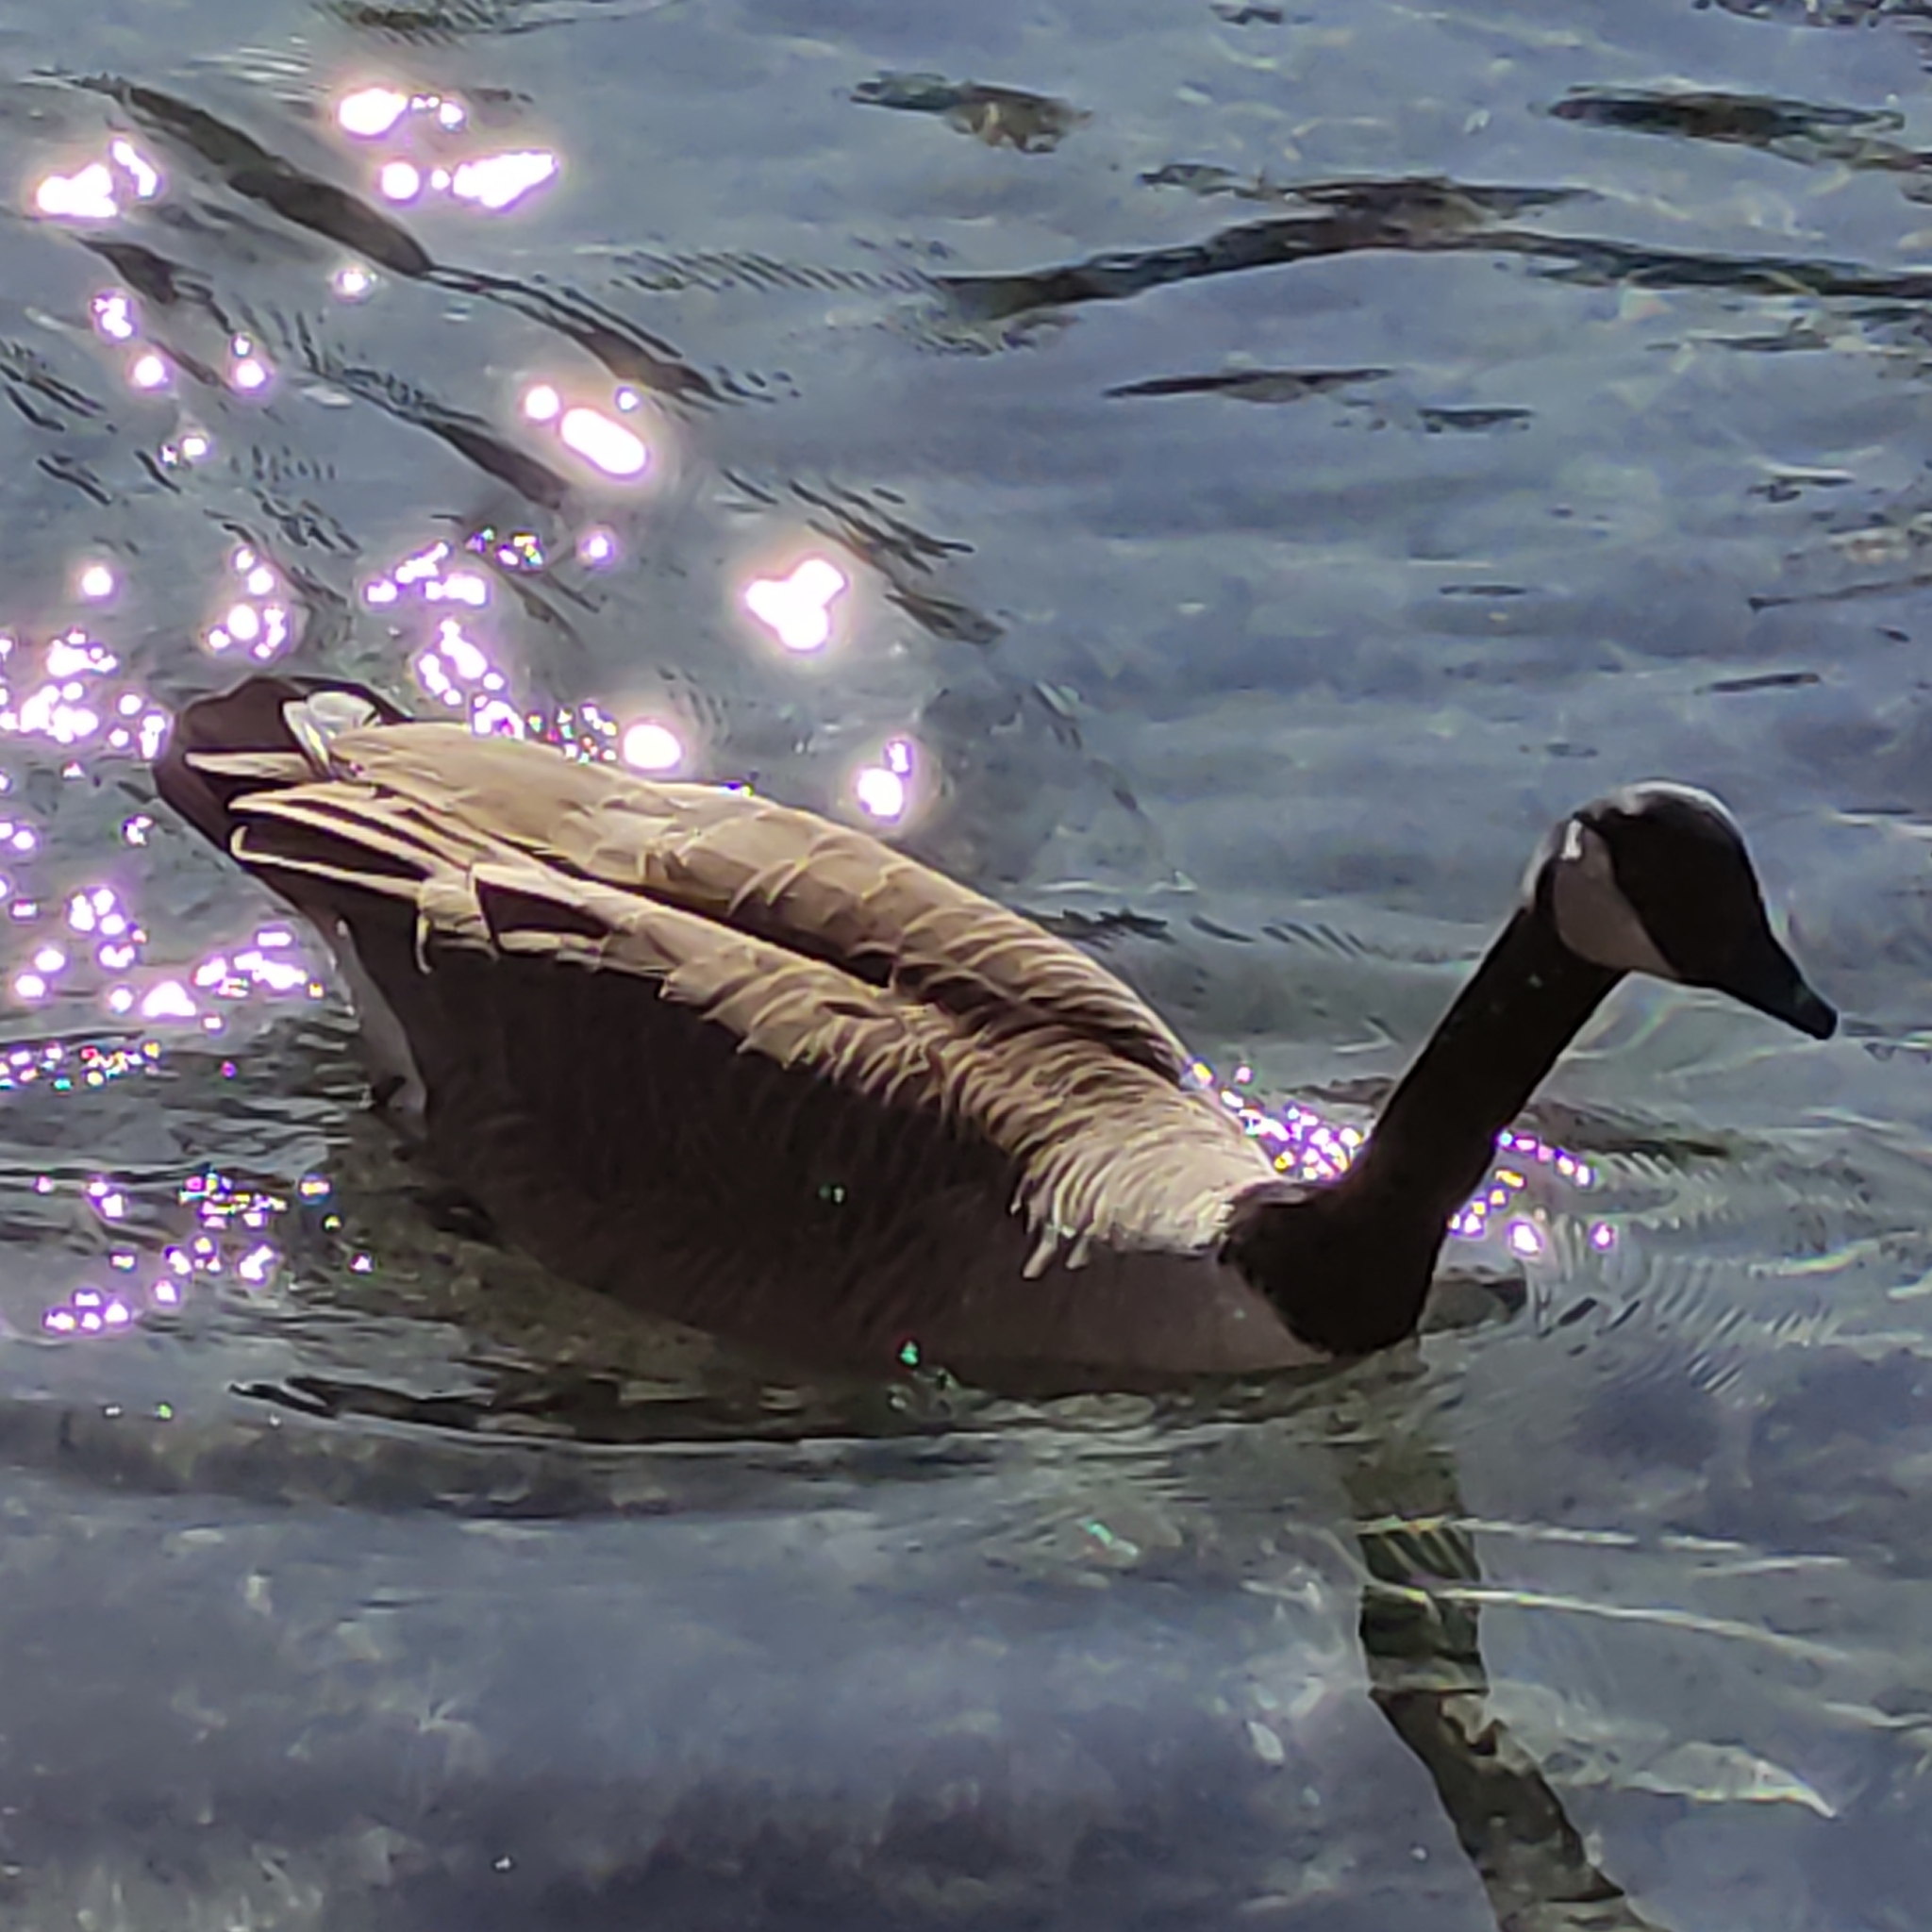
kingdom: Animalia
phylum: Chordata
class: Aves
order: Anseriformes
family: Anatidae
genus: Branta
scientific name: Branta canadensis
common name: Canada goose
